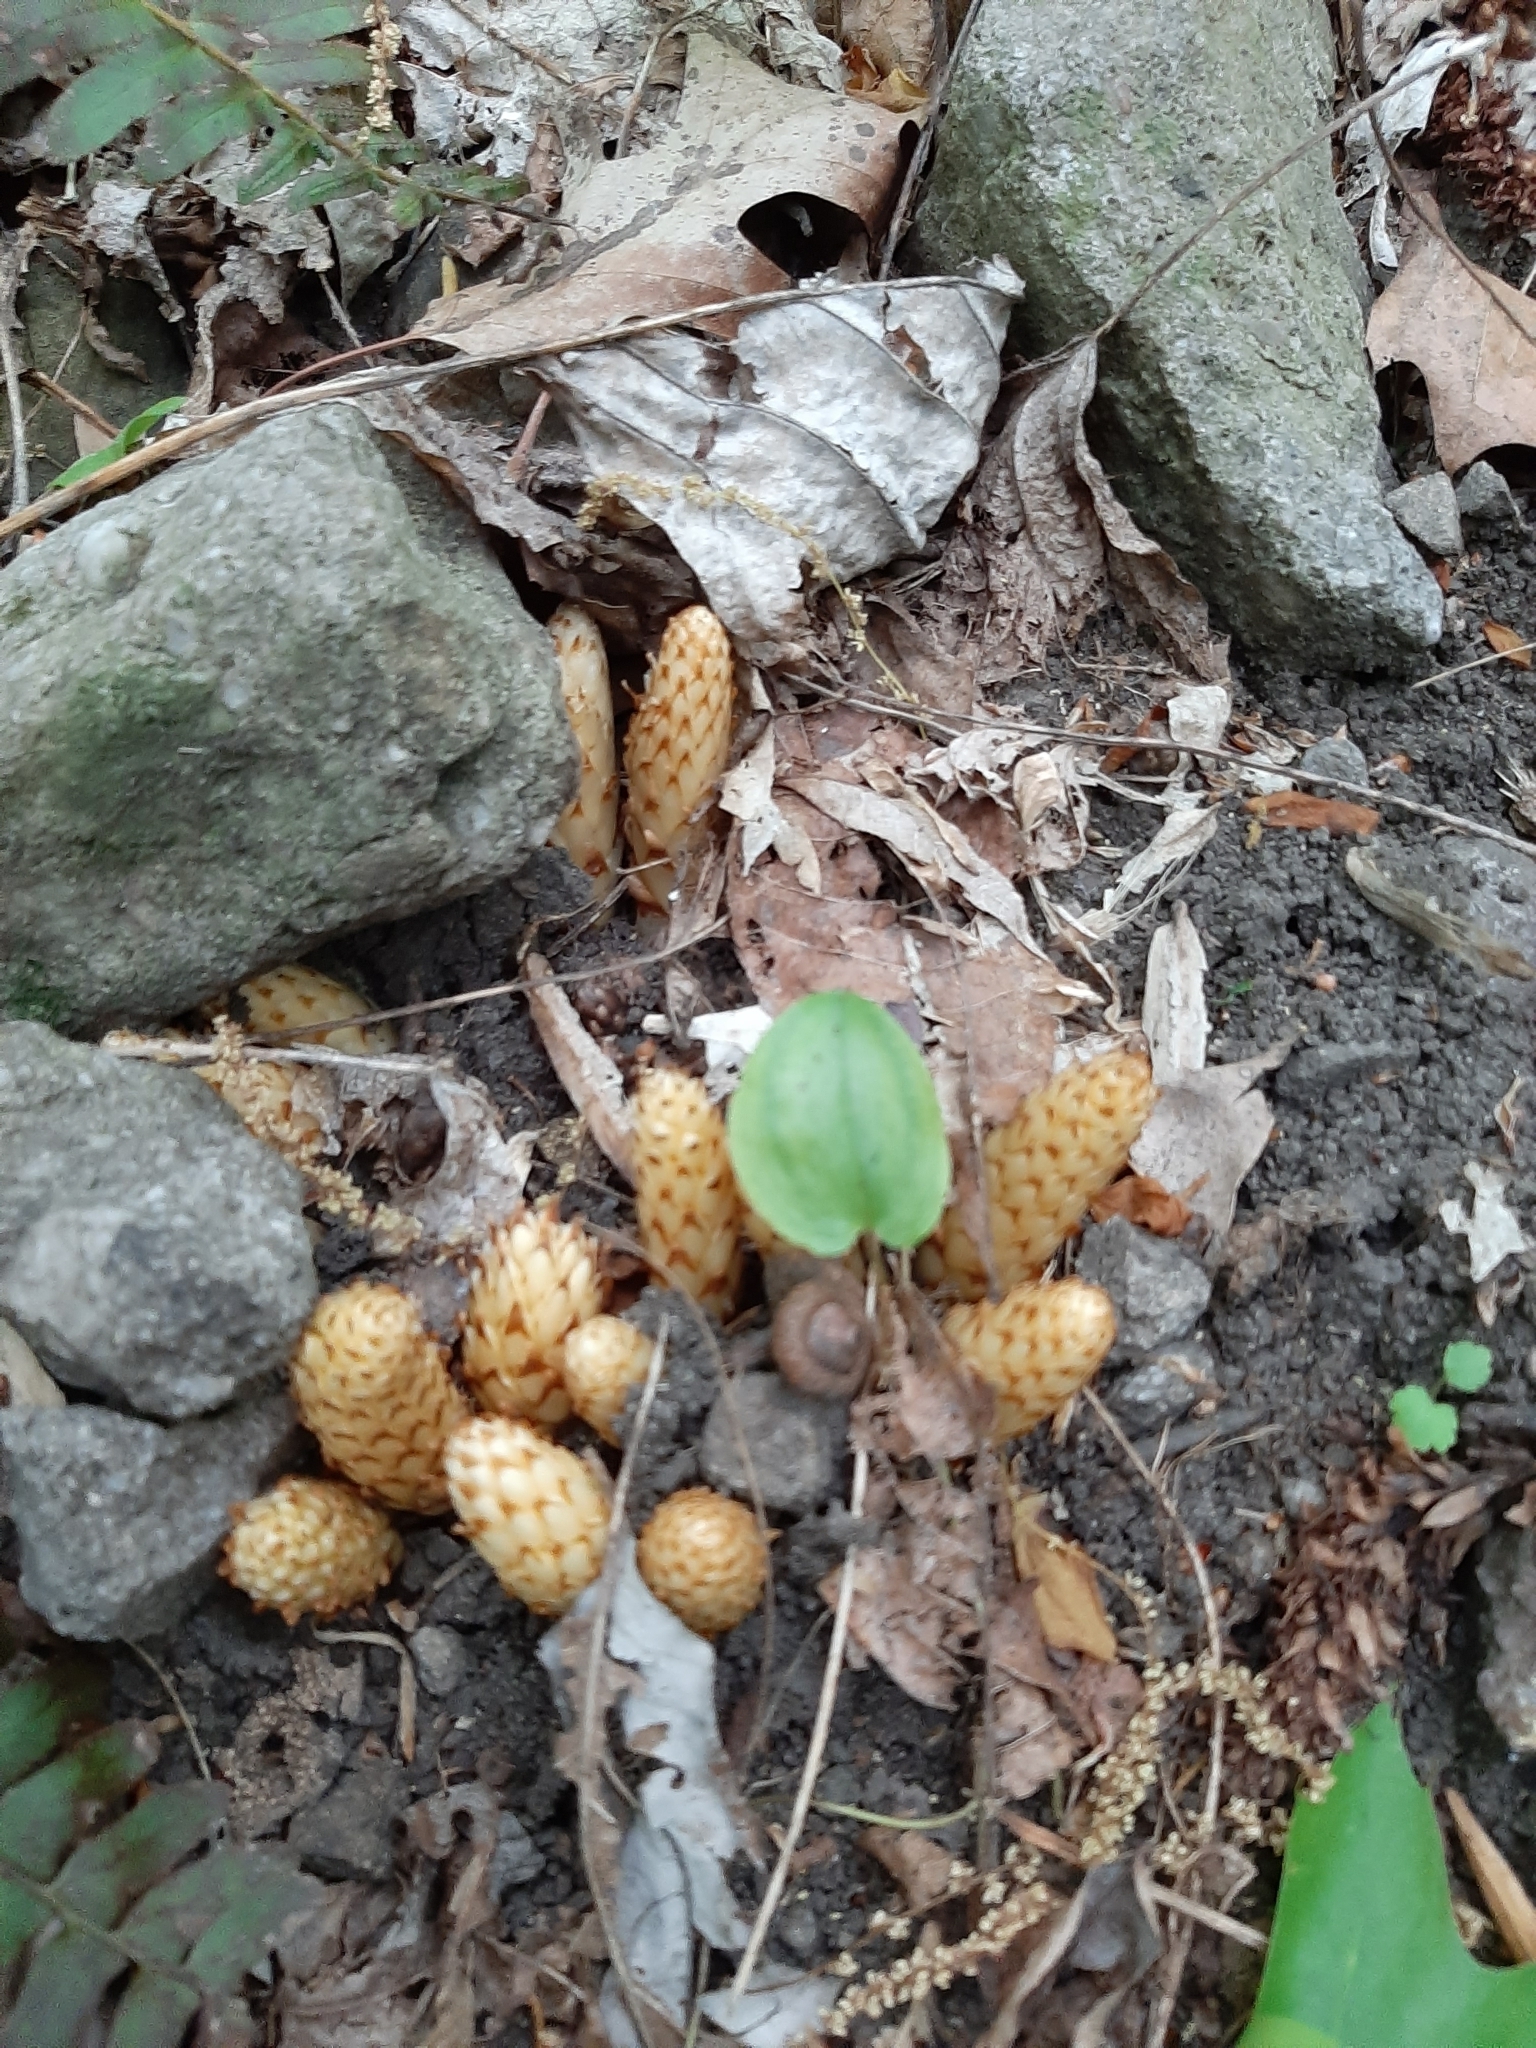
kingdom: Plantae
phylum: Tracheophyta
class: Magnoliopsida
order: Lamiales
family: Orobanchaceae
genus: Conopholis
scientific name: Conopholis americana
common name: American cancer-root
